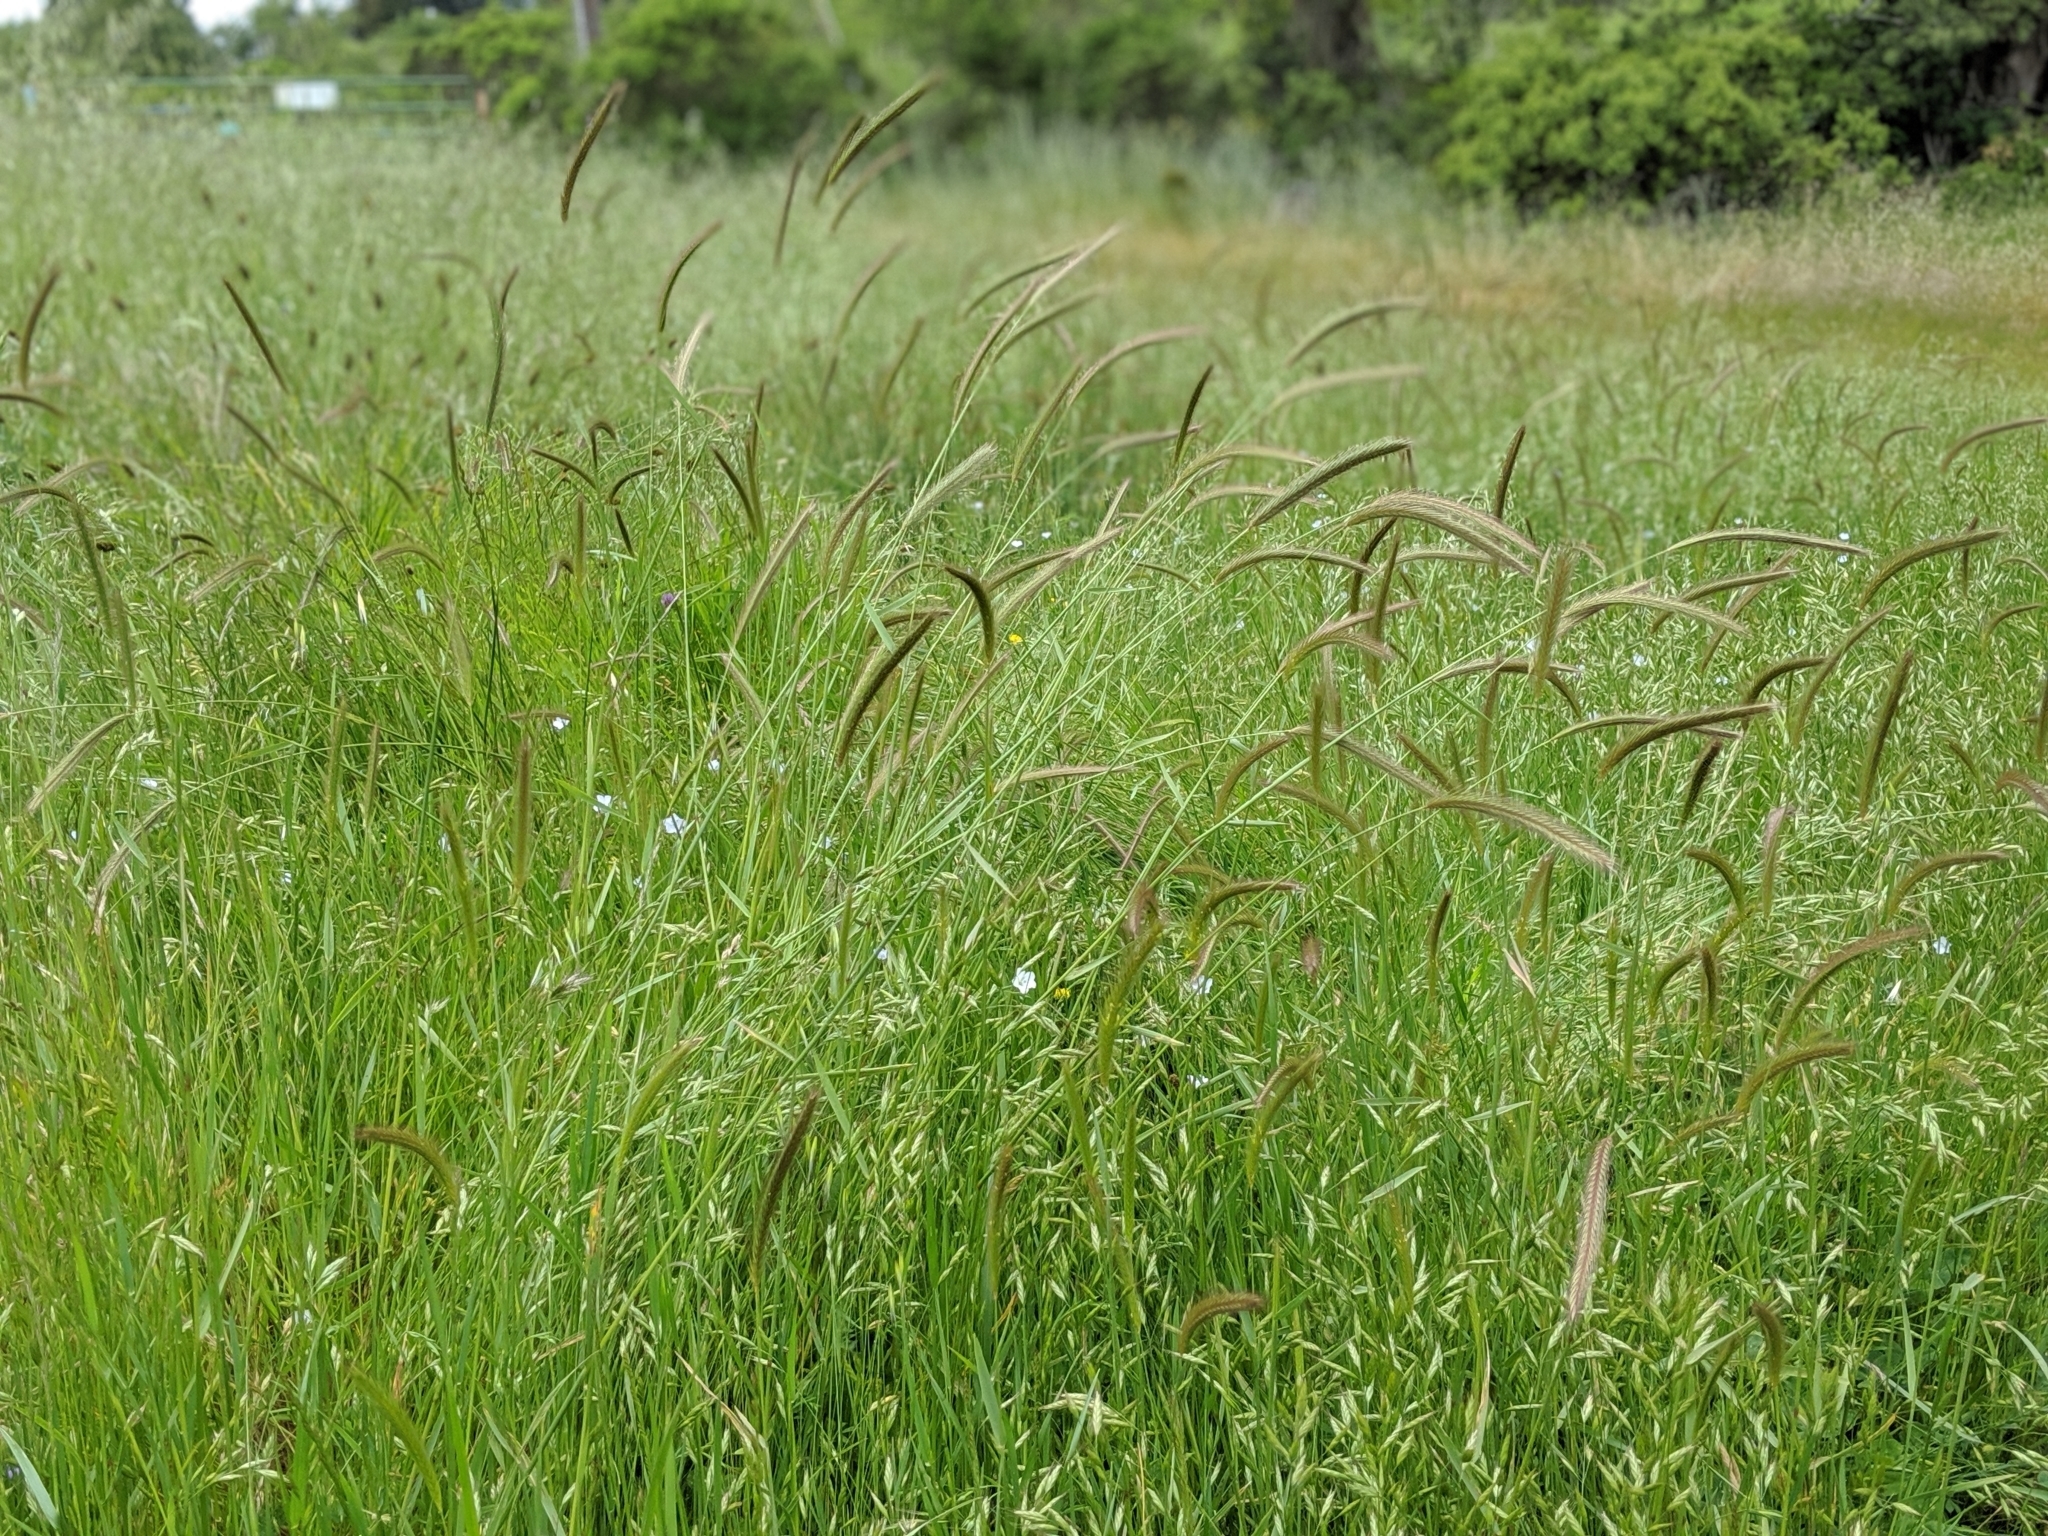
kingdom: Plantae
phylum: Tracheophyta
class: Liliopsida
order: Poales
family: Poaceae
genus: Hordeum
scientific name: Hordeum brachyantherum
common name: Meadow barley
